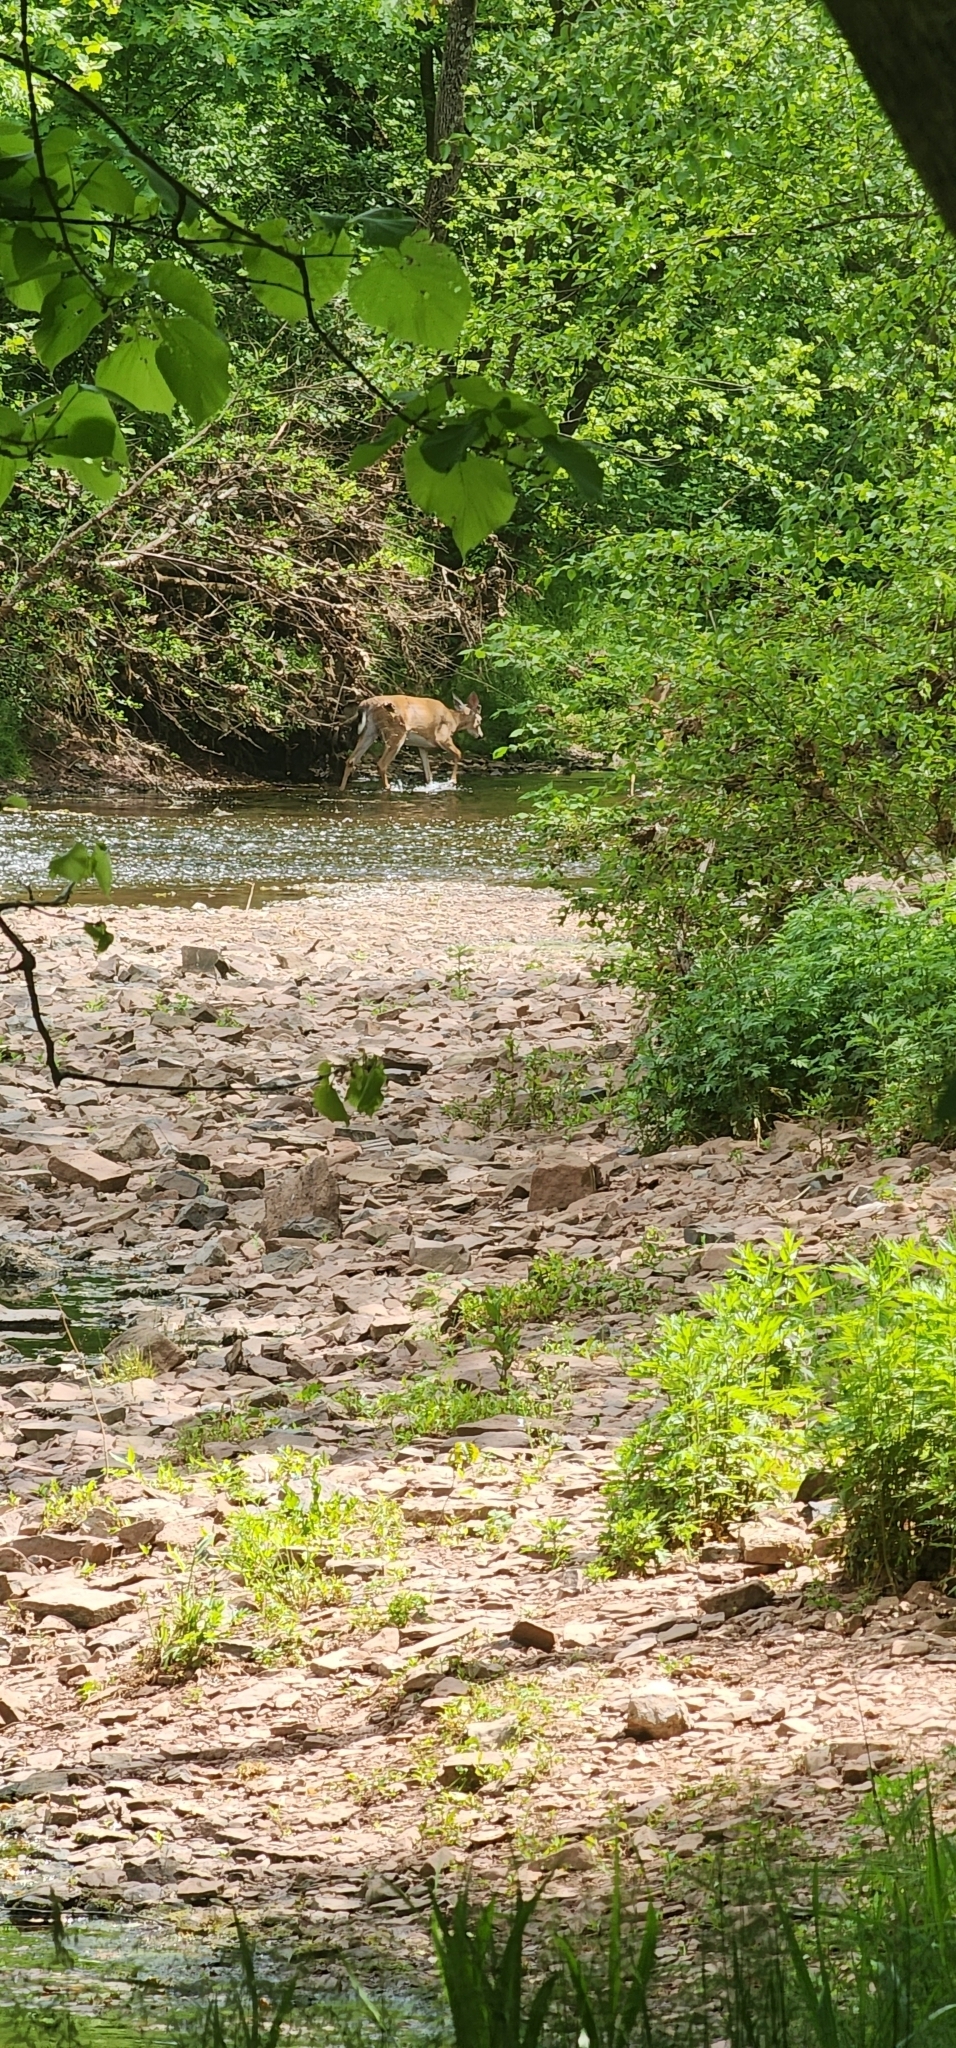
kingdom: Animalia
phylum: Chordata
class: Mammalia
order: Artiodactyla
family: Cervidae
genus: Odocoileus
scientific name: Odocoileus virginianus
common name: White-tailed deer
